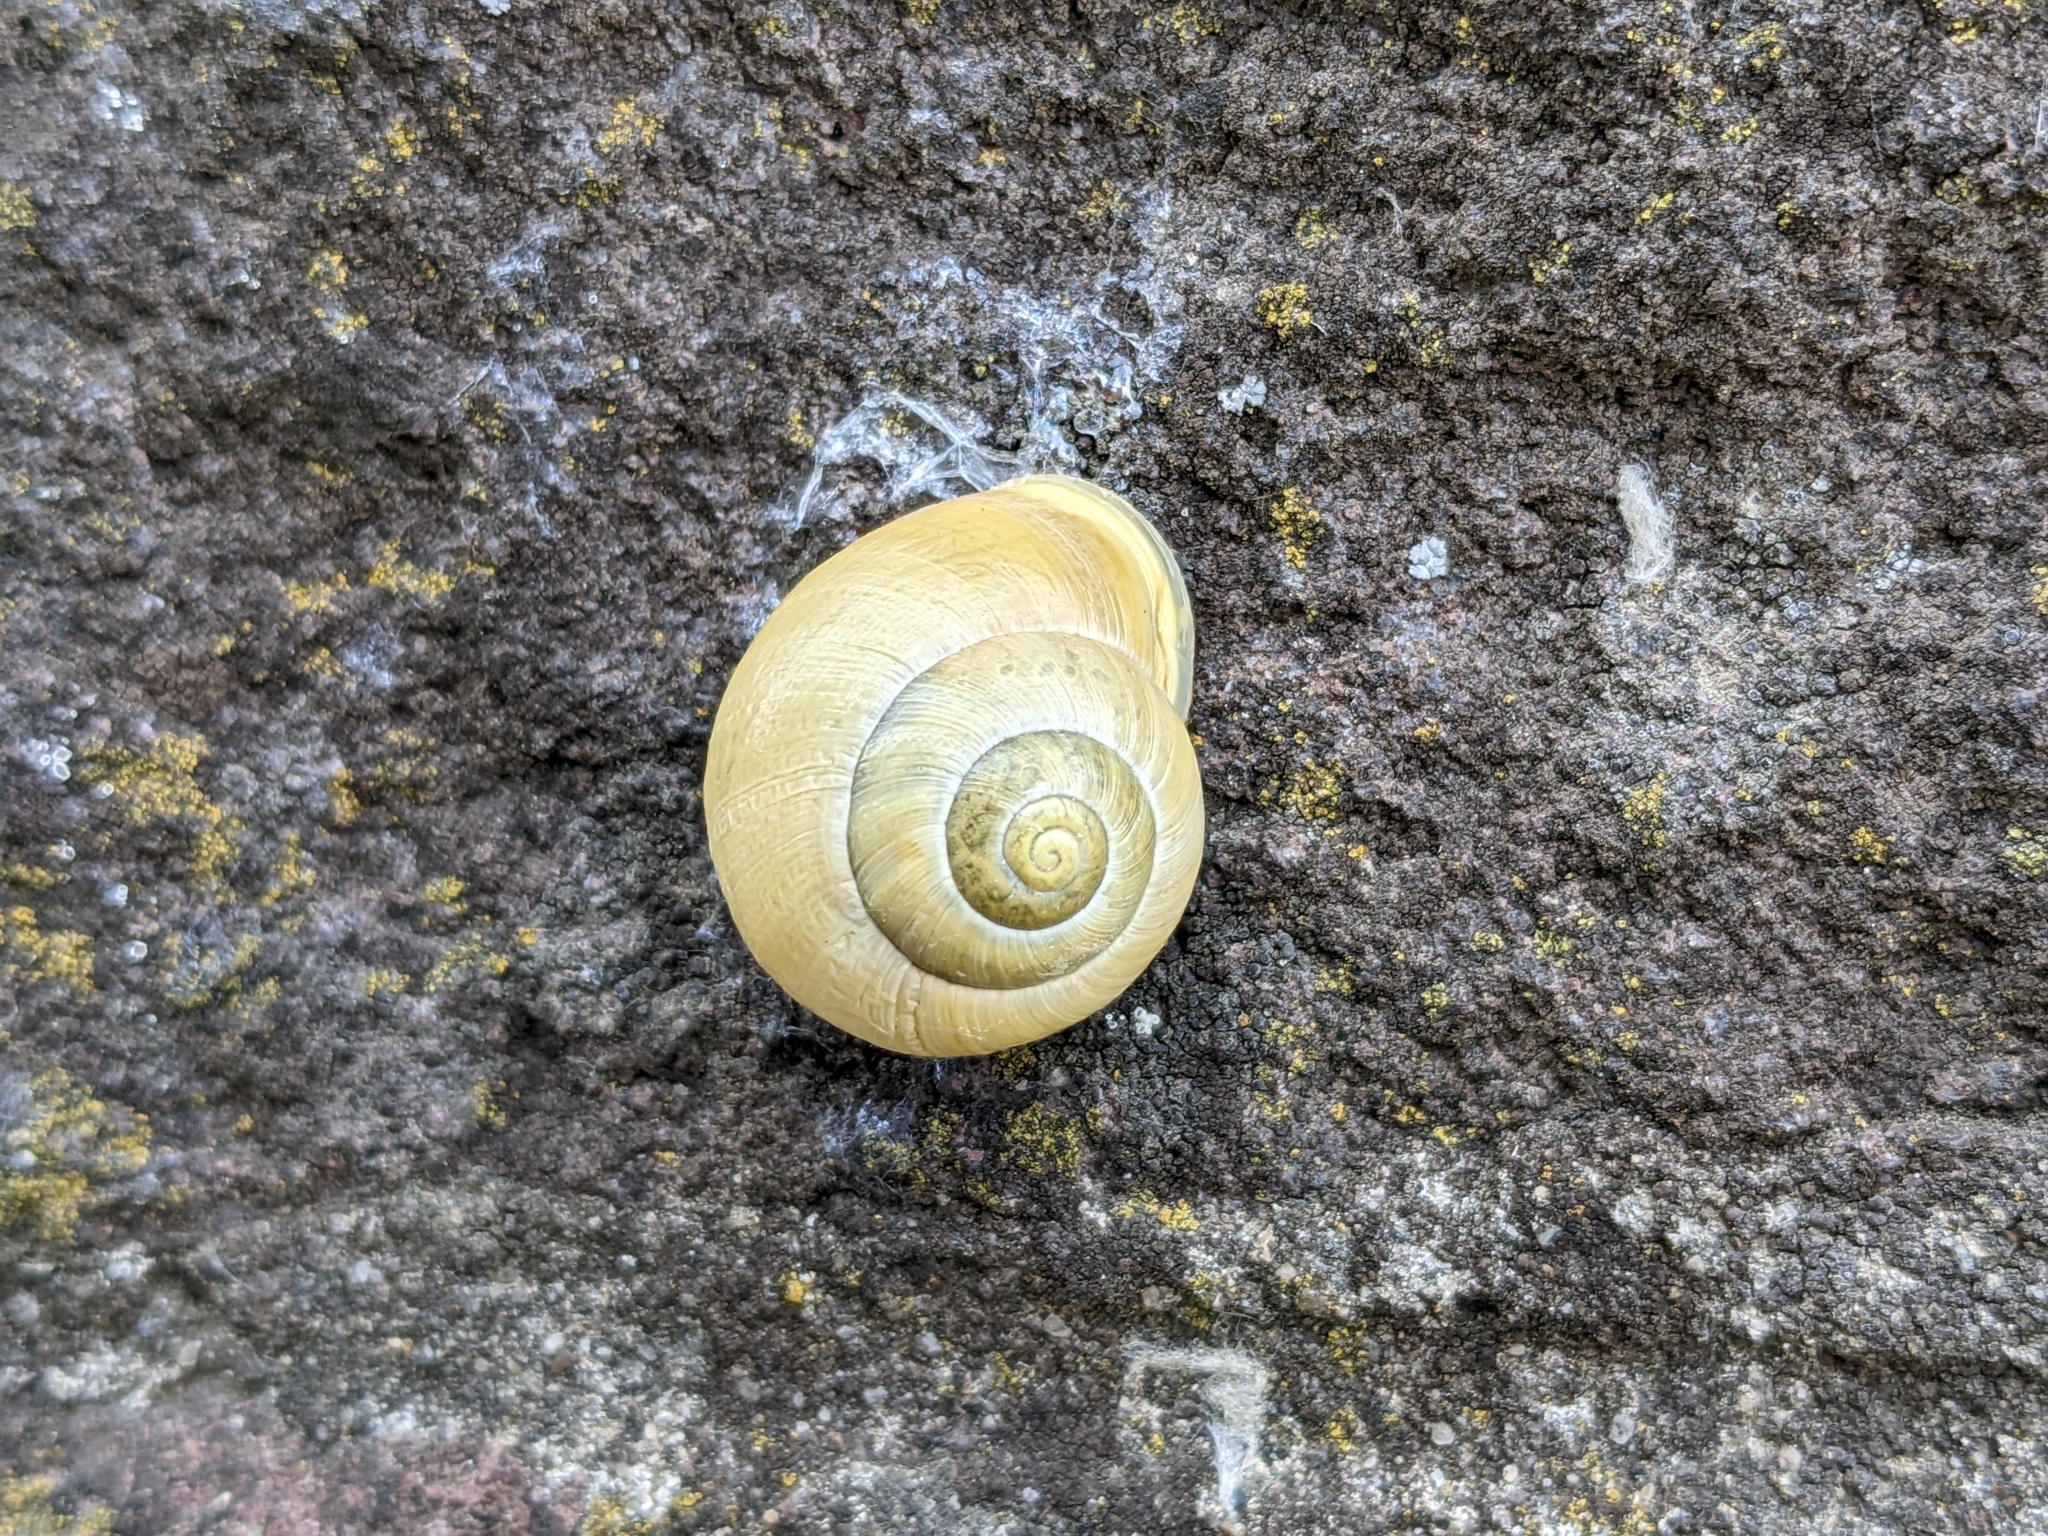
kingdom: Animalia
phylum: Mollusca
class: Gastropoda
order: Stylommatophora
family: Helicidae
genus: Cepaea
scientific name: Cepaea hortensis
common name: White-lip gardensnail
